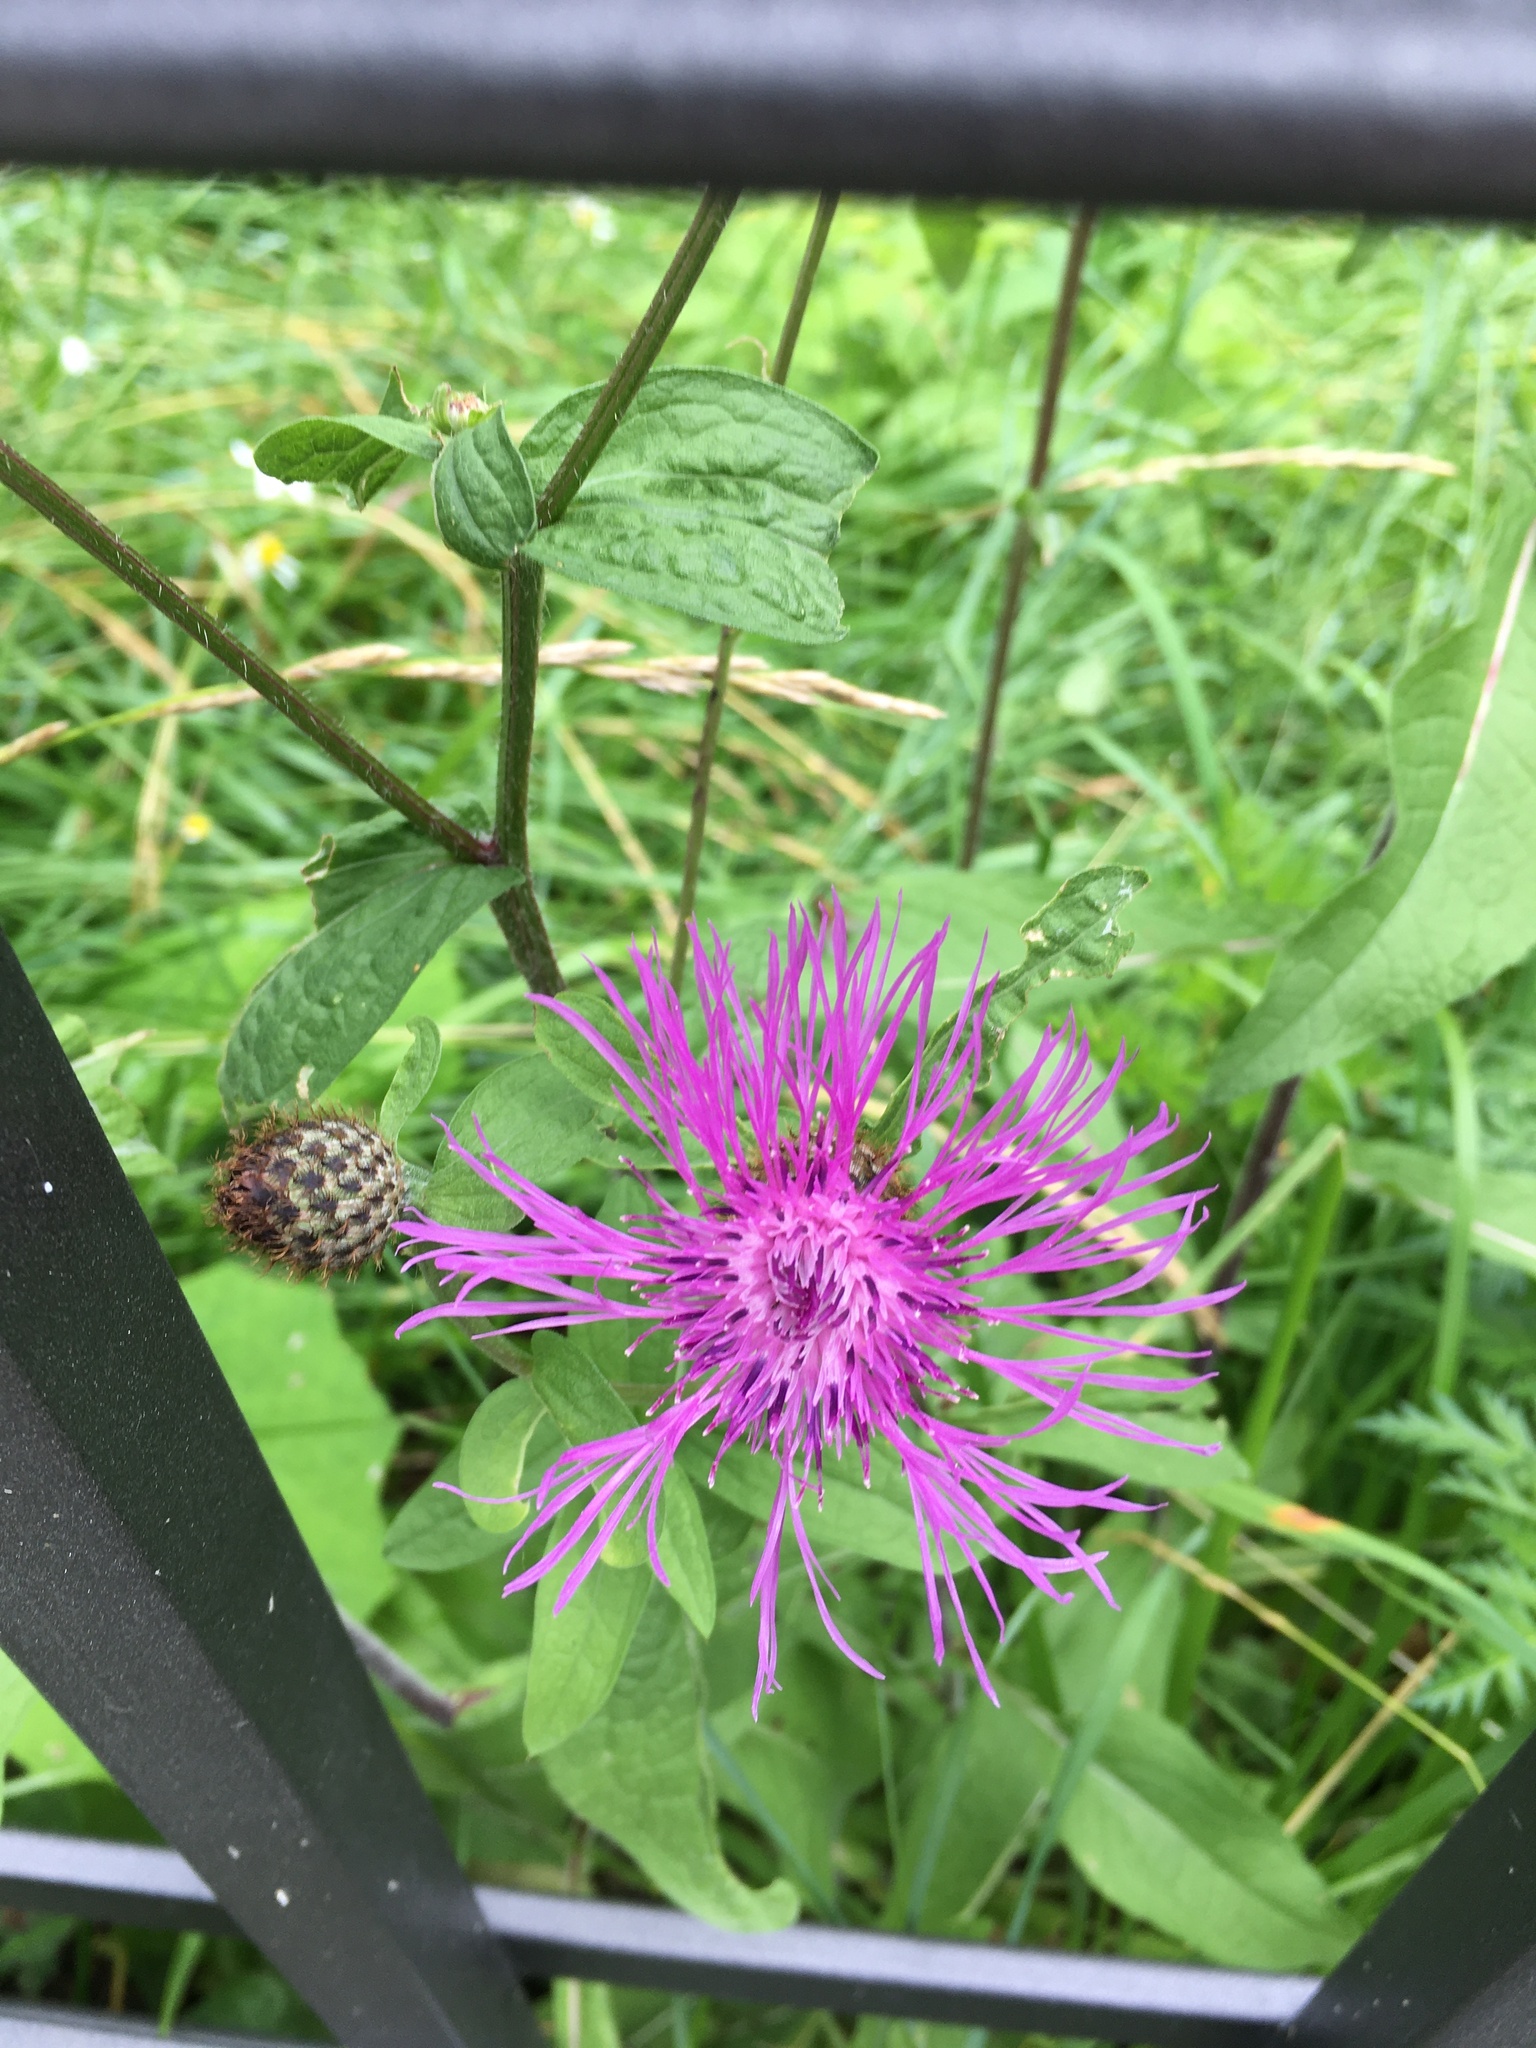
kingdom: Plantae
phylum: Tracheophyta
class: Magnoliopsida
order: Asterales
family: Asteraceae
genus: Centaurea
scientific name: Centaurea phrygia
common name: Wig knapweed
